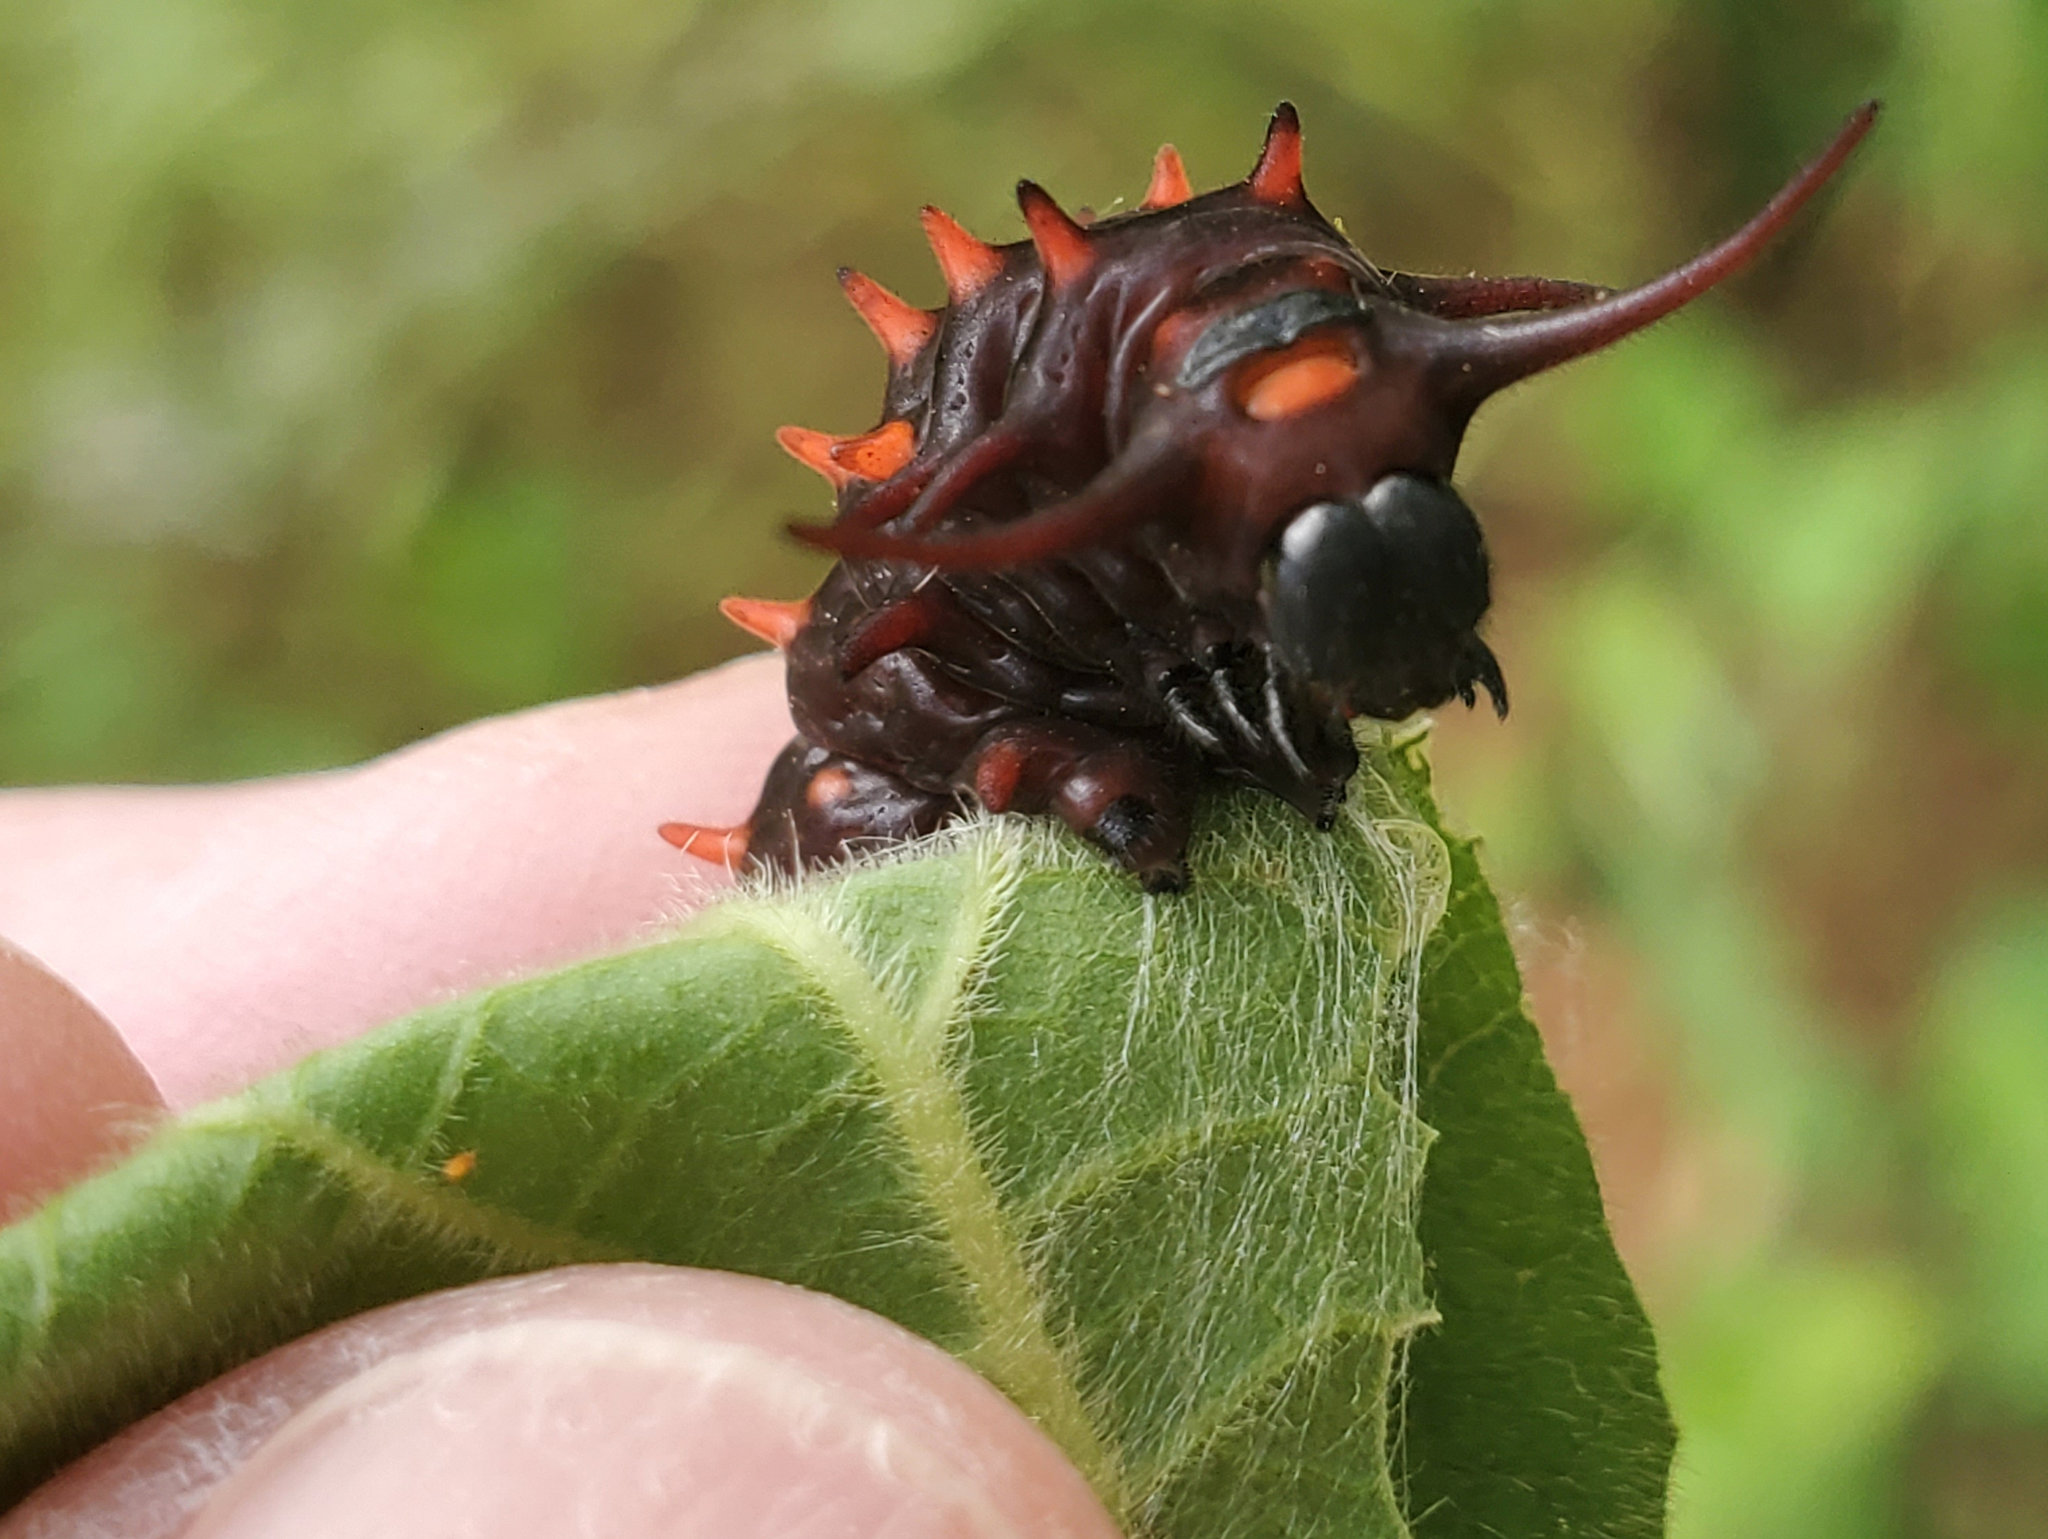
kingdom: Animalia
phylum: Arthropoda
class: Insecta
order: Lepidoptera
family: Papilionidae
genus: Battus
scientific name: Battus philenor
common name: Pipevine swallowtail
